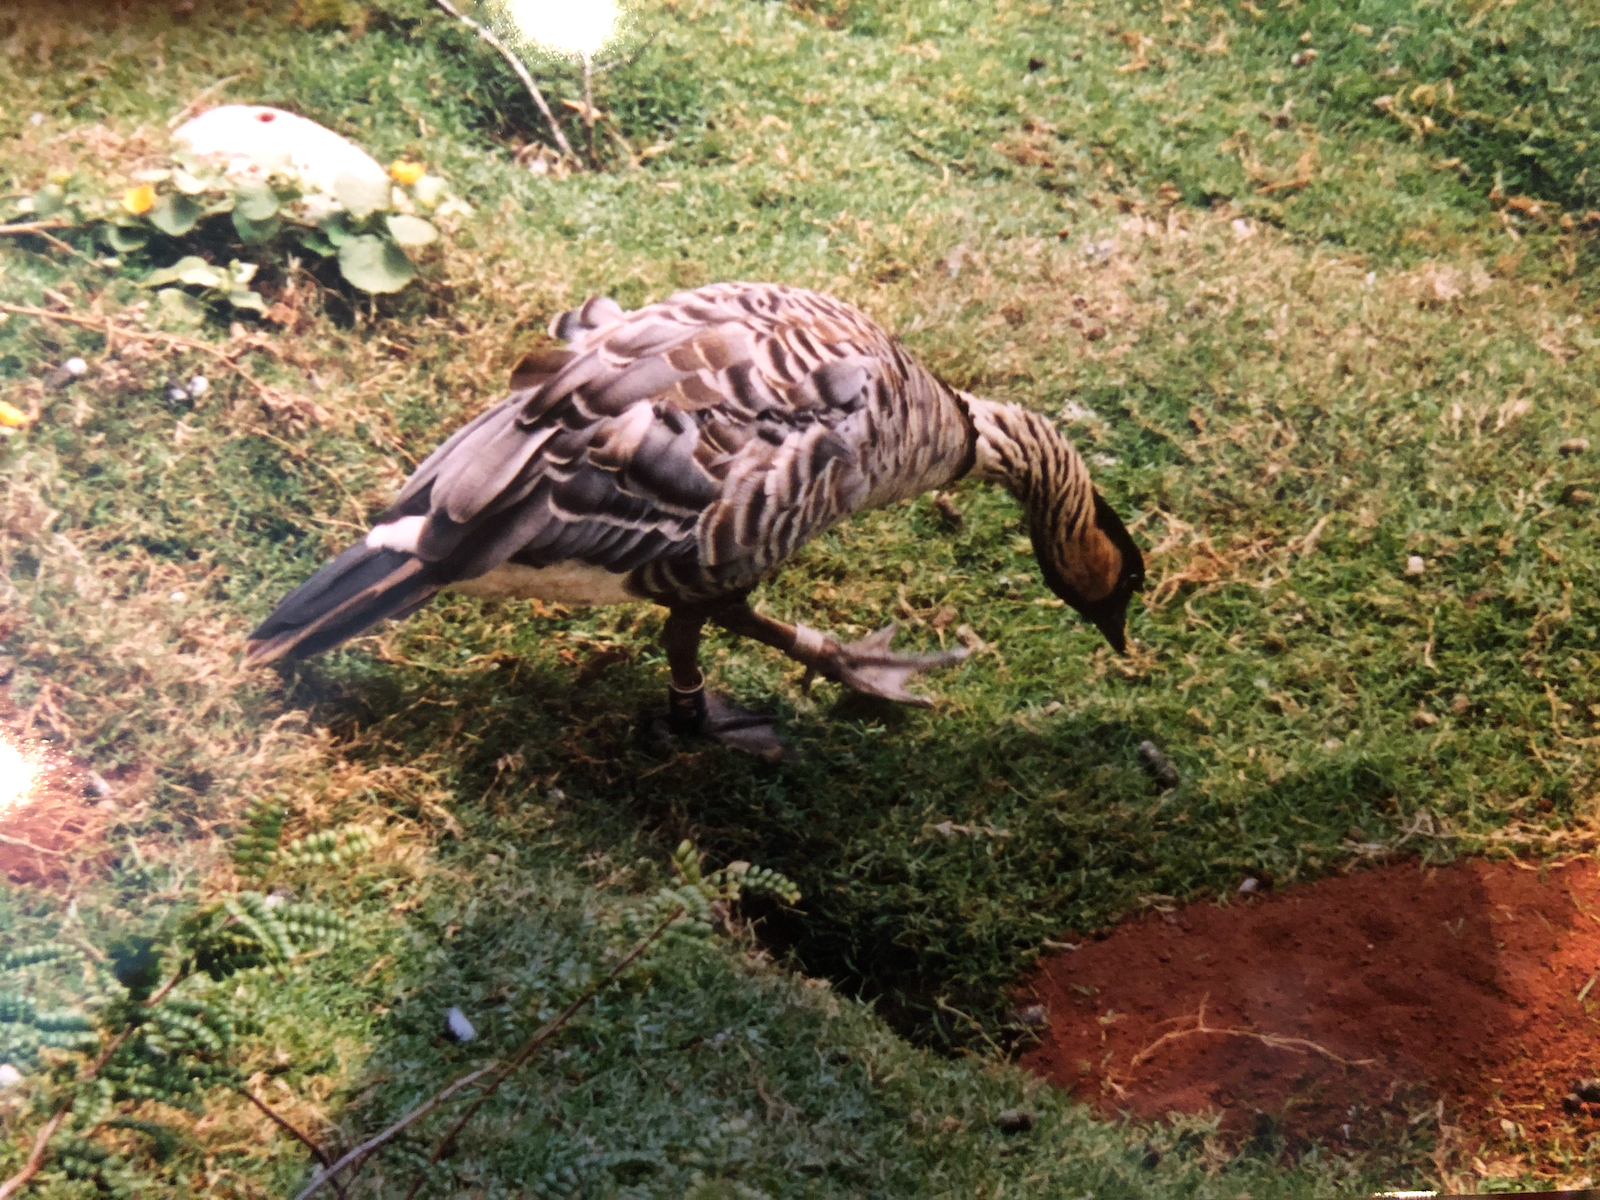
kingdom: Animalia
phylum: Chordata
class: Aves
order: Anseriformes
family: Anatidae
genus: Branta
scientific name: Branta sandvicensis
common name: Nene
